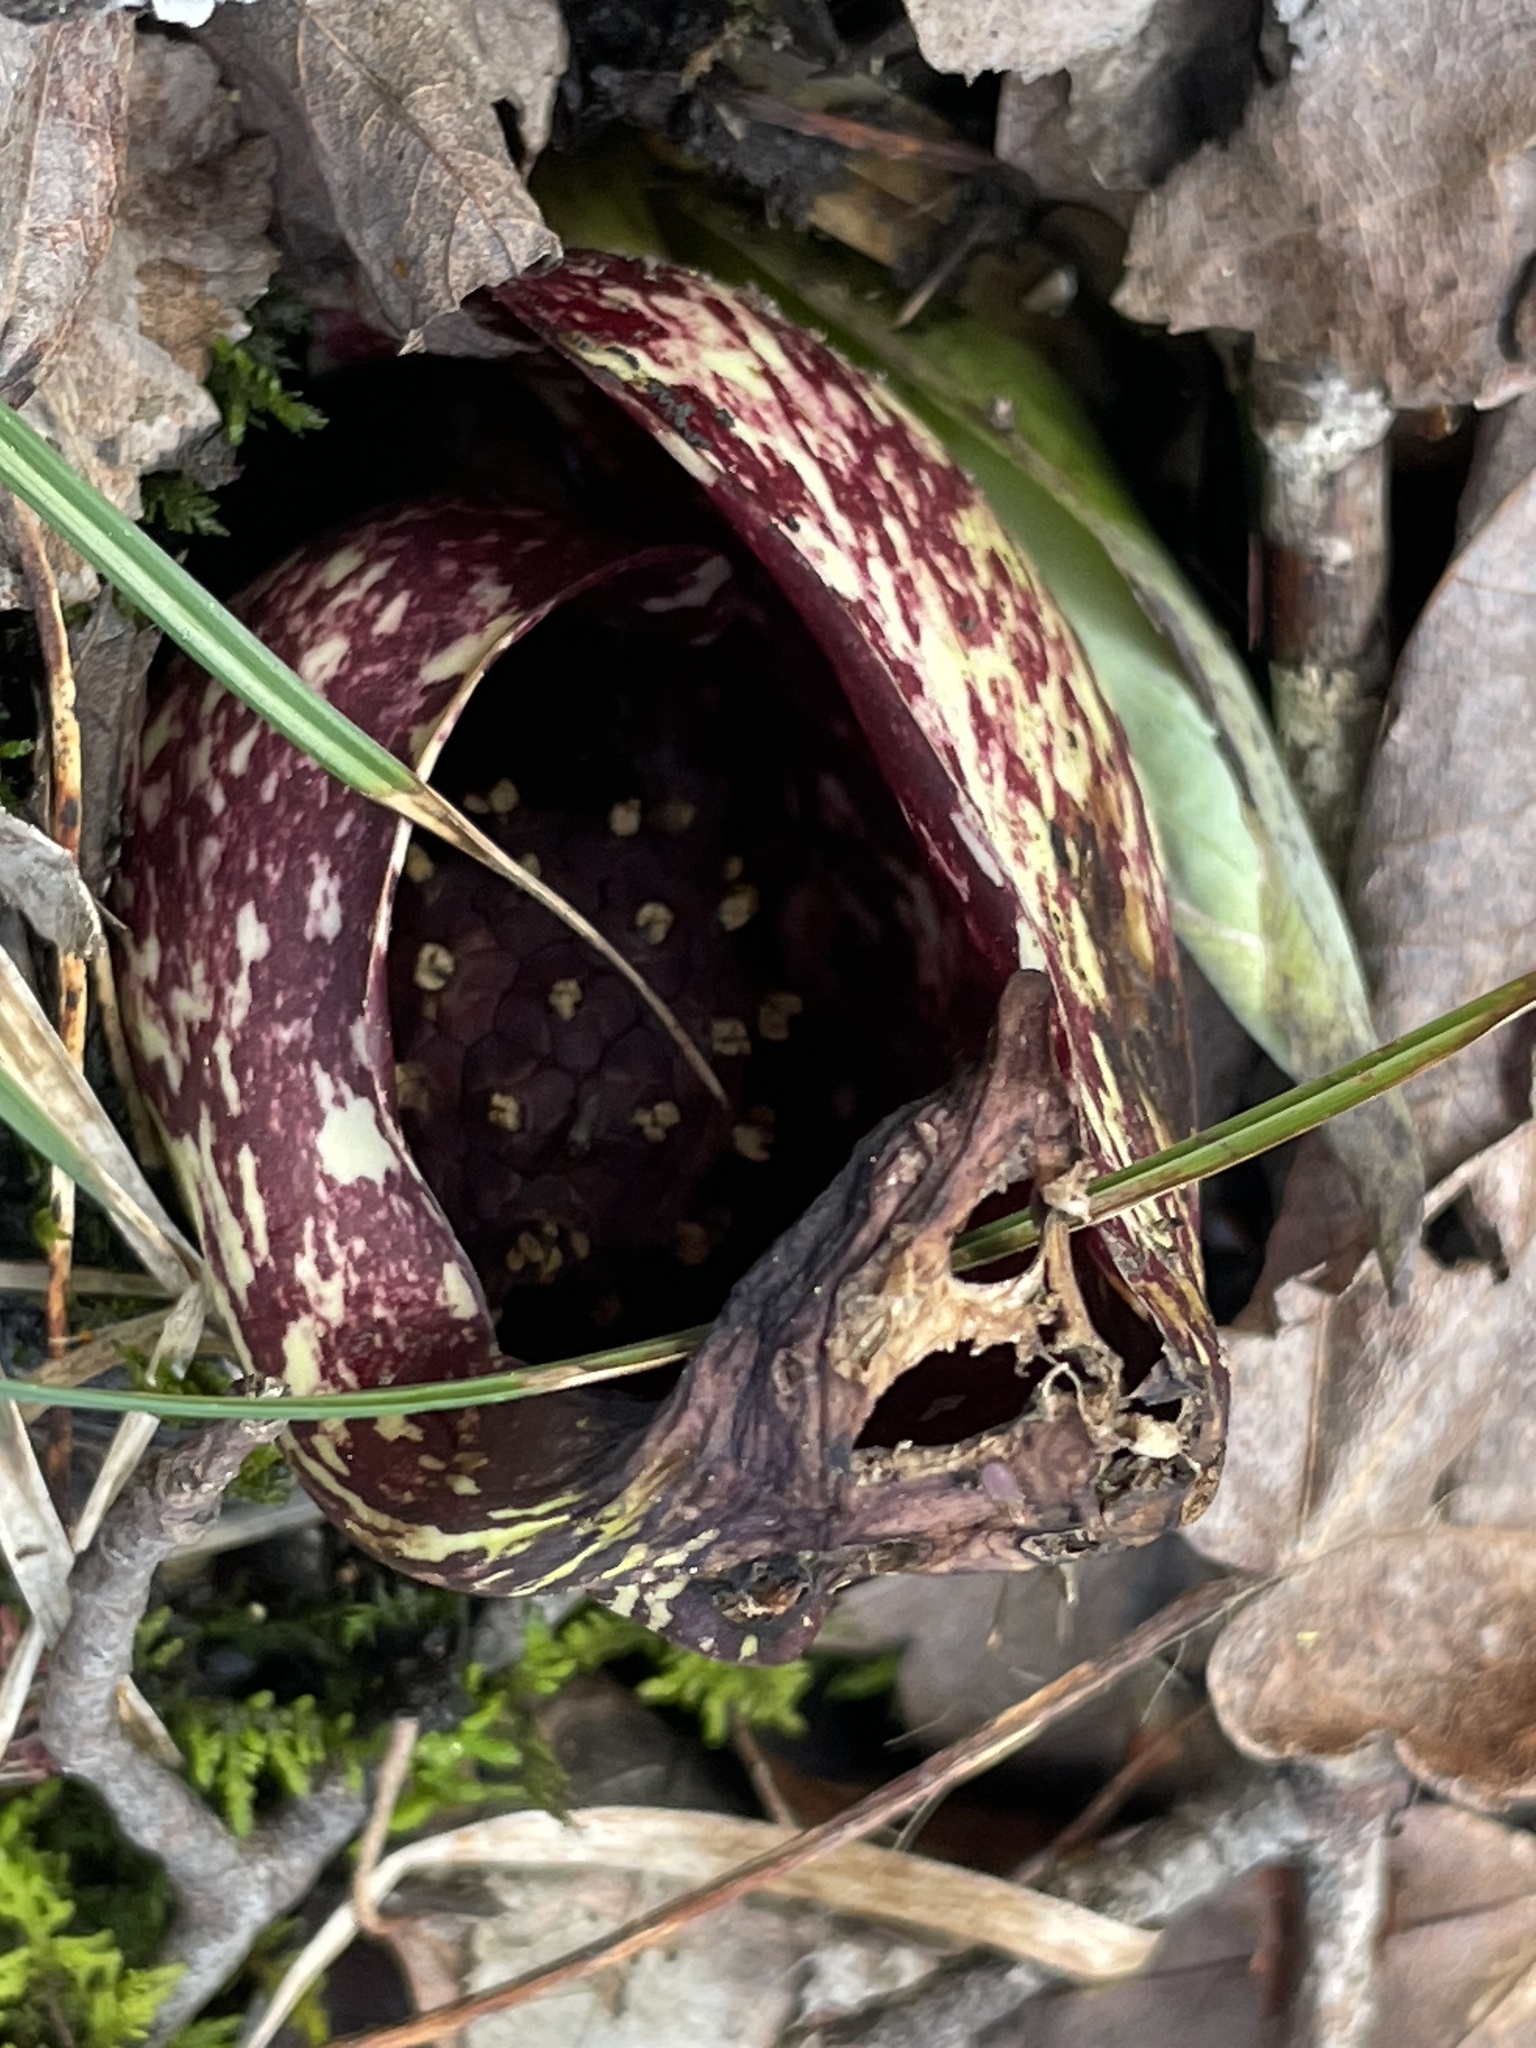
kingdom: Plantae
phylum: Tracheophyta
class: Liliopsida
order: Alismatales
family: Araceae
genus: Symplocarpus
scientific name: Symplocarpus foetidus
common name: Eastern skunk cabbage
